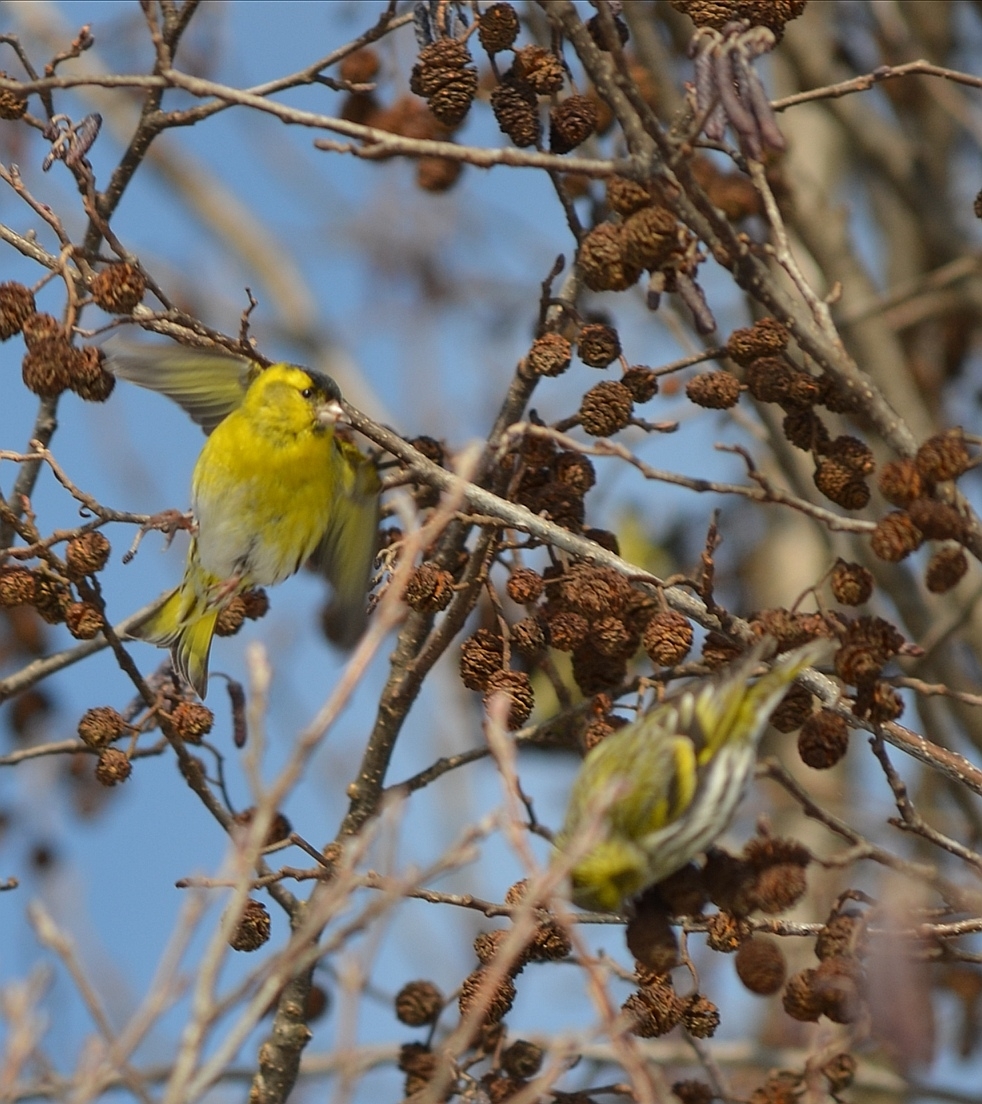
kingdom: Animalia
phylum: Chordata
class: Aves
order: Passeriformes
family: Fringillidae
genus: Spinus
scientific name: Spinus spinus
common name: Eurasian siskin
